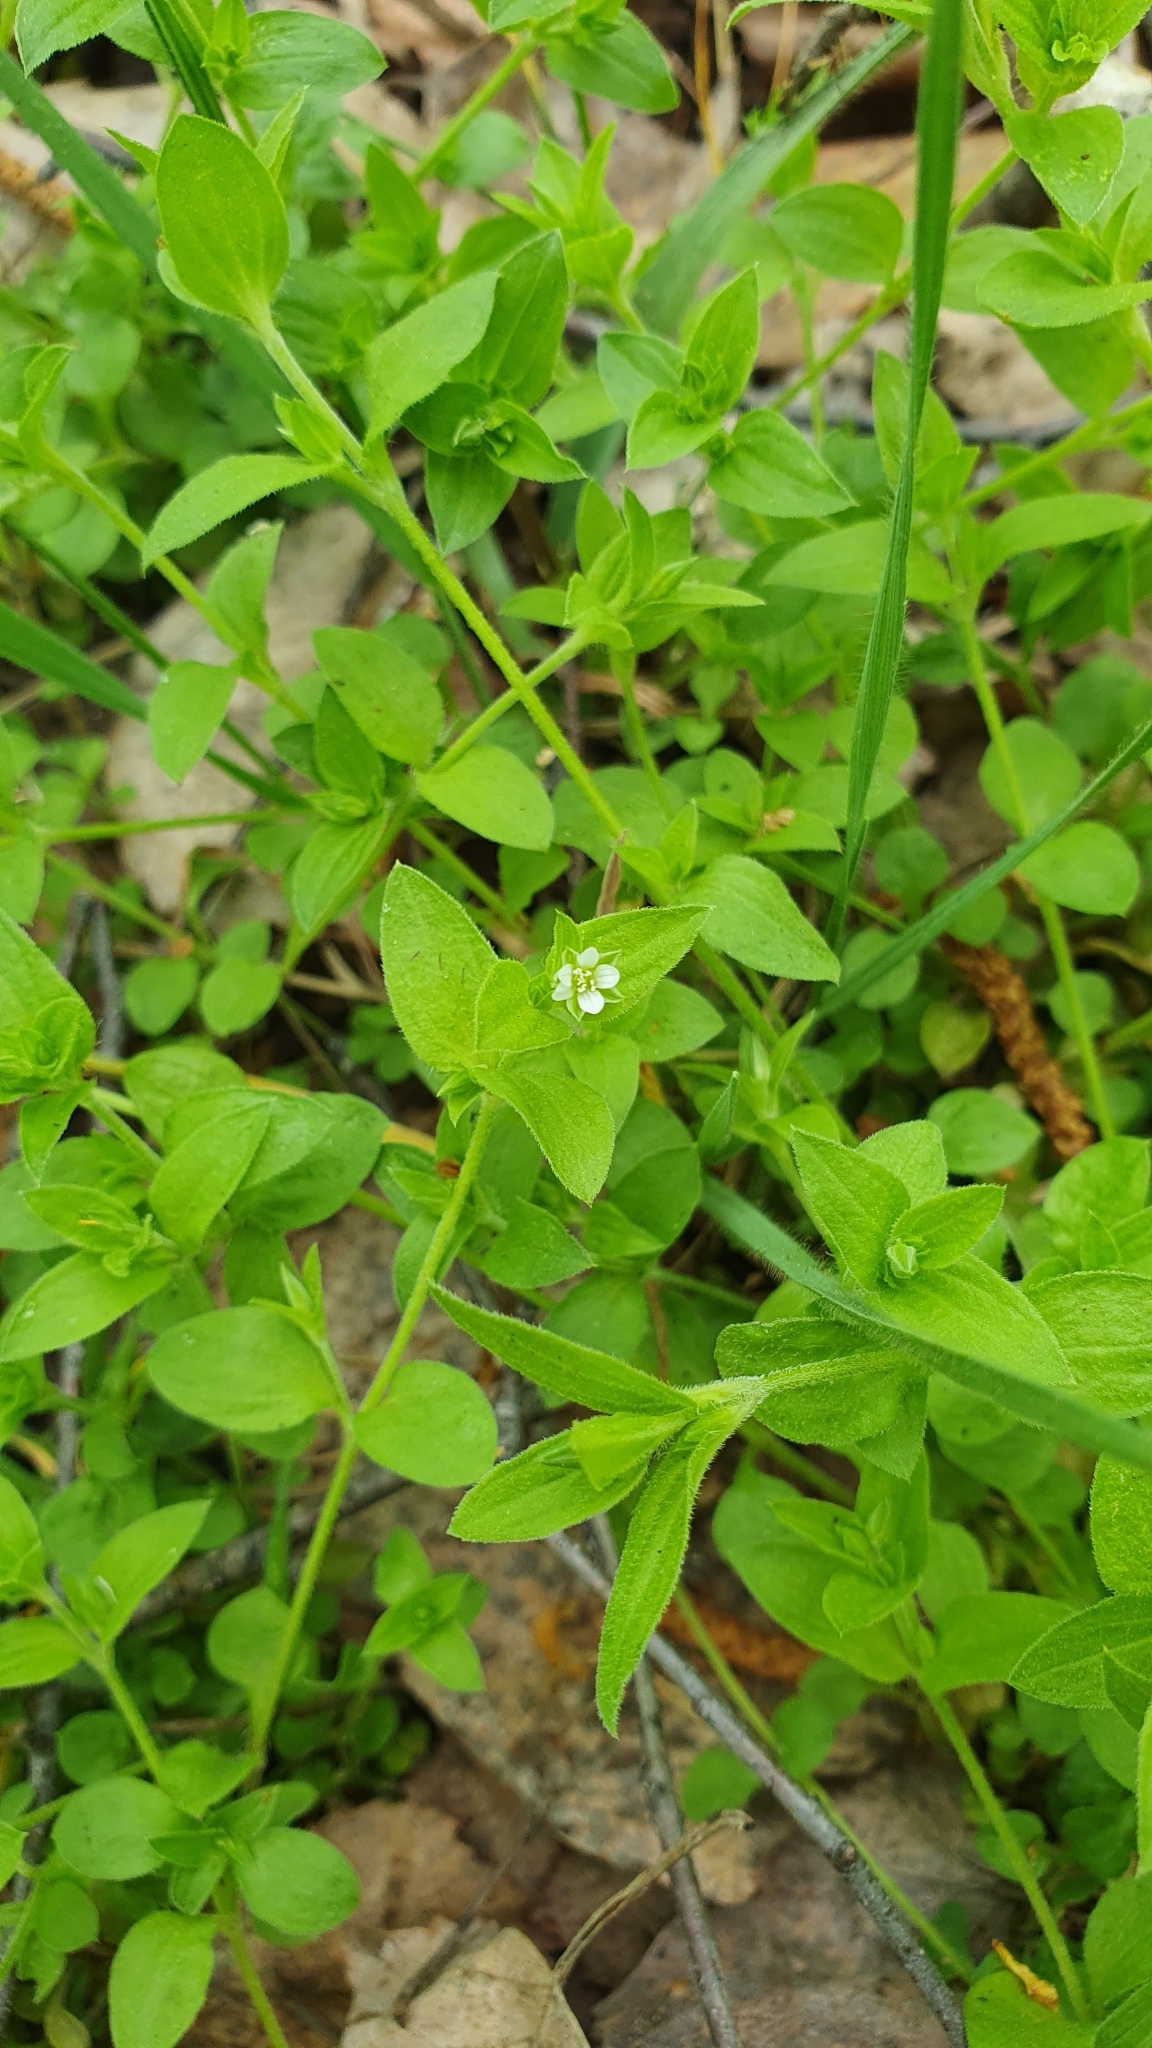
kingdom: Plantae
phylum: Tracheophyta
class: Magnoliopsida
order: Caryophyllales
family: Caryophyllaceae
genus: Moehringia
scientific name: Moehringia trinervia
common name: Three-nerved sandwort
